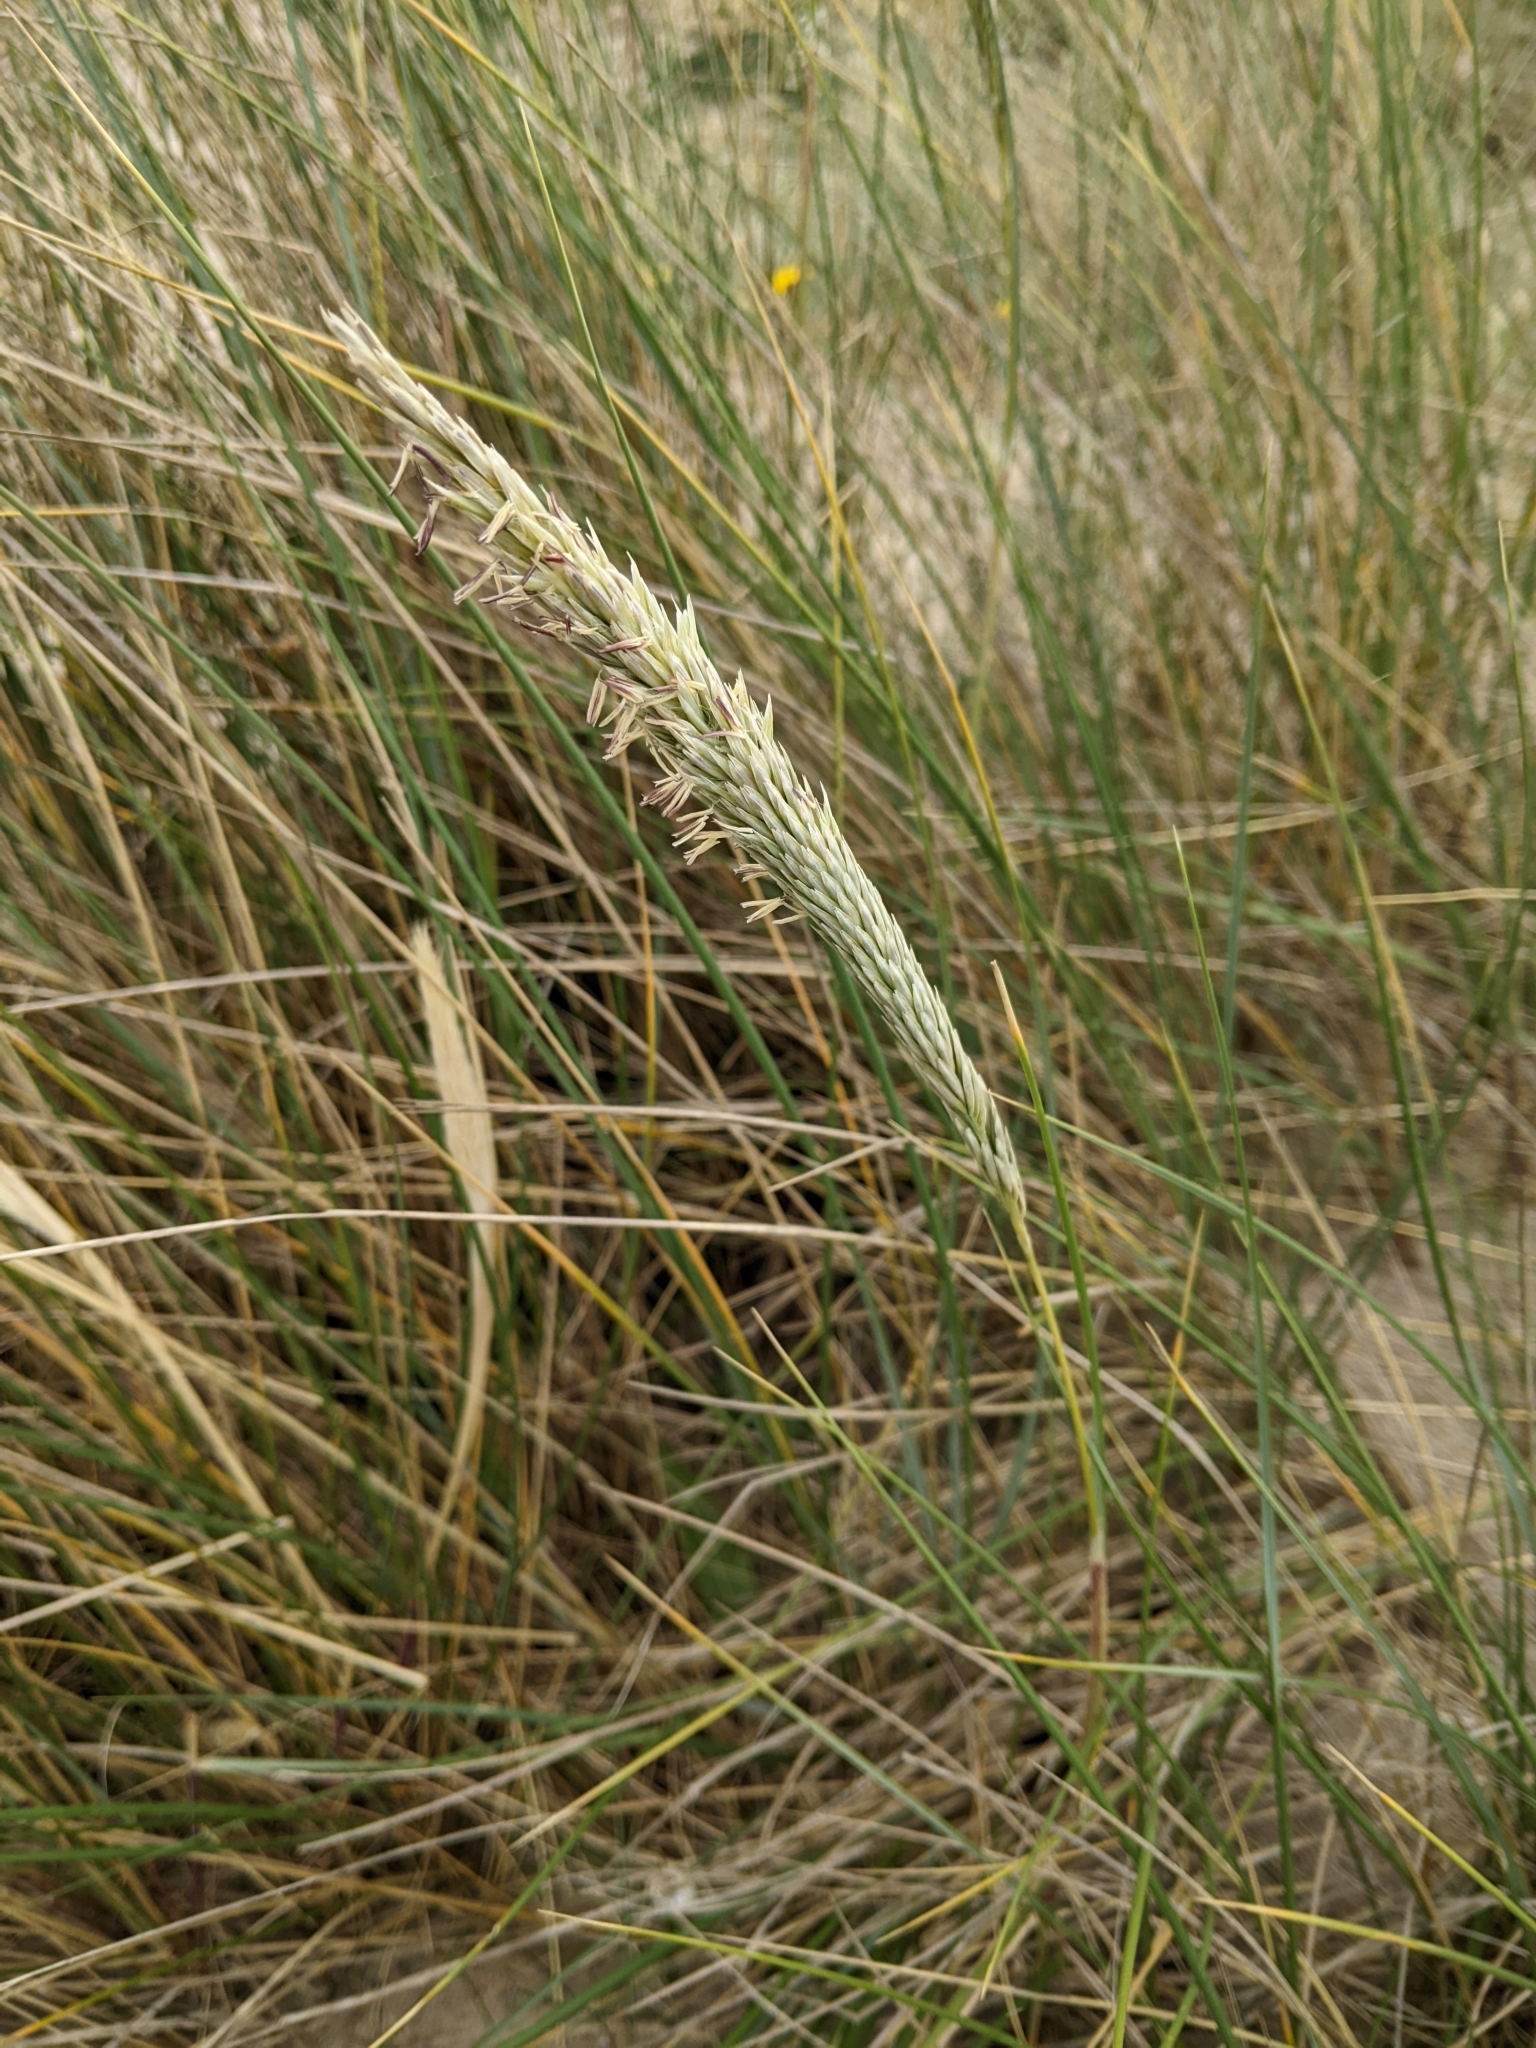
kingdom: Plantae
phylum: Tracheophyta
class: Liliopsida
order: Poales
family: Poaceae
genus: Calamagrostis
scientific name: Calamagrostis arenaria
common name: European beachgrass
